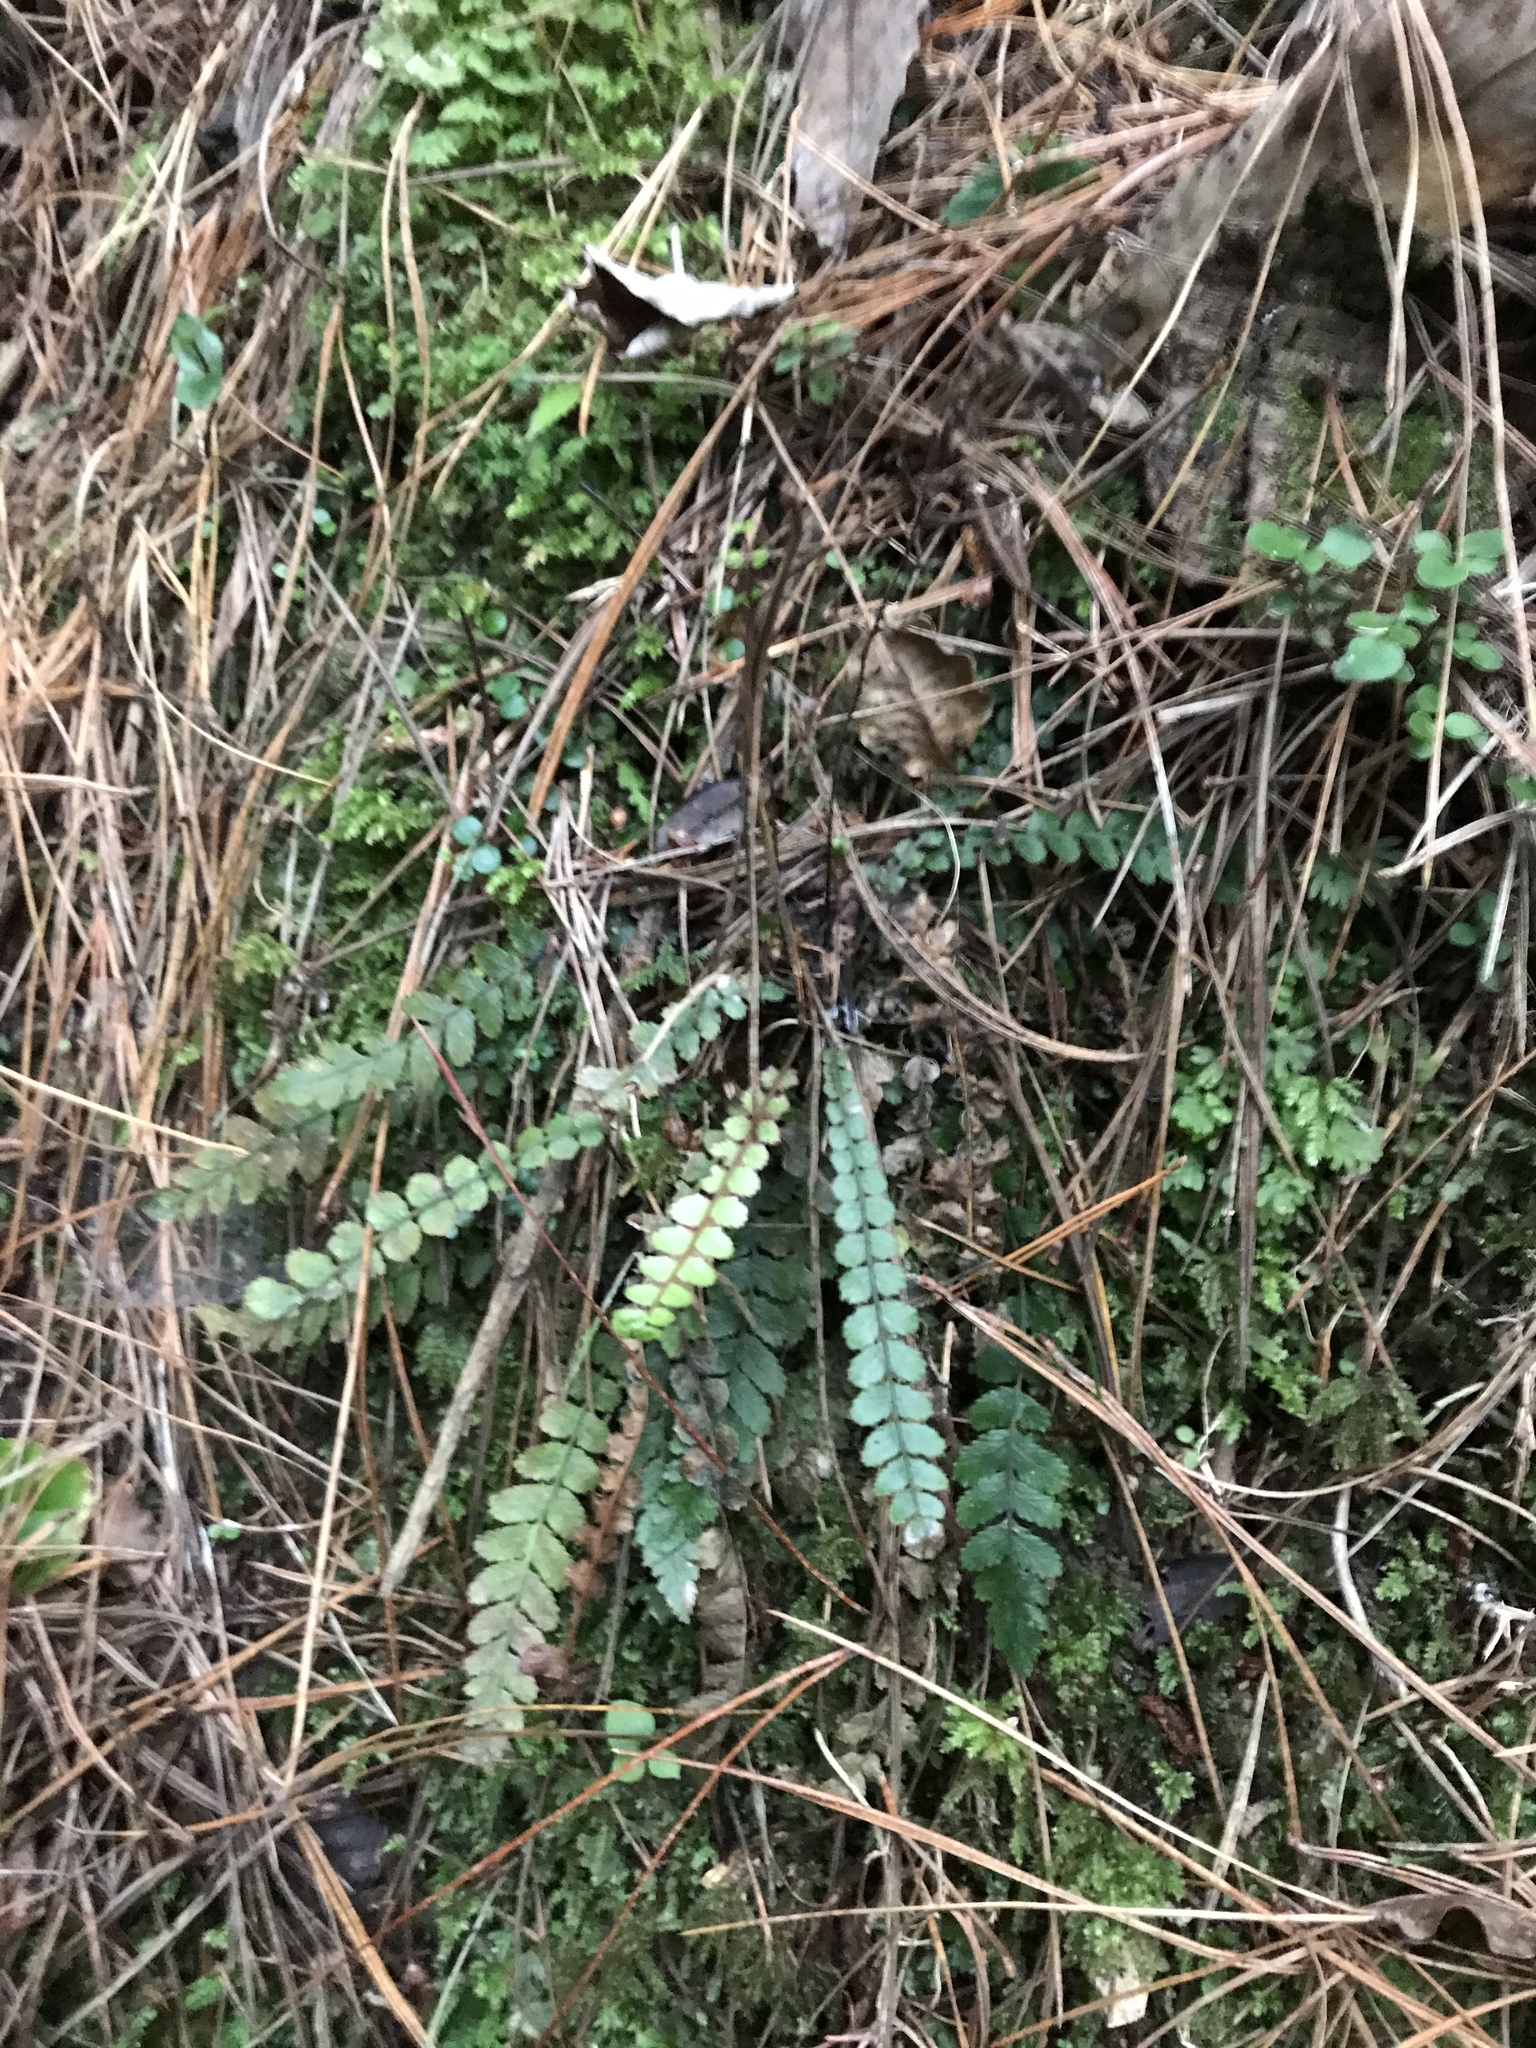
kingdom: Plantae
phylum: Tracheophyta
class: Polypodiopsida
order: Polypodiales
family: Blechnaceae
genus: Austroblechnum
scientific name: Austroblechnum membranaceum
